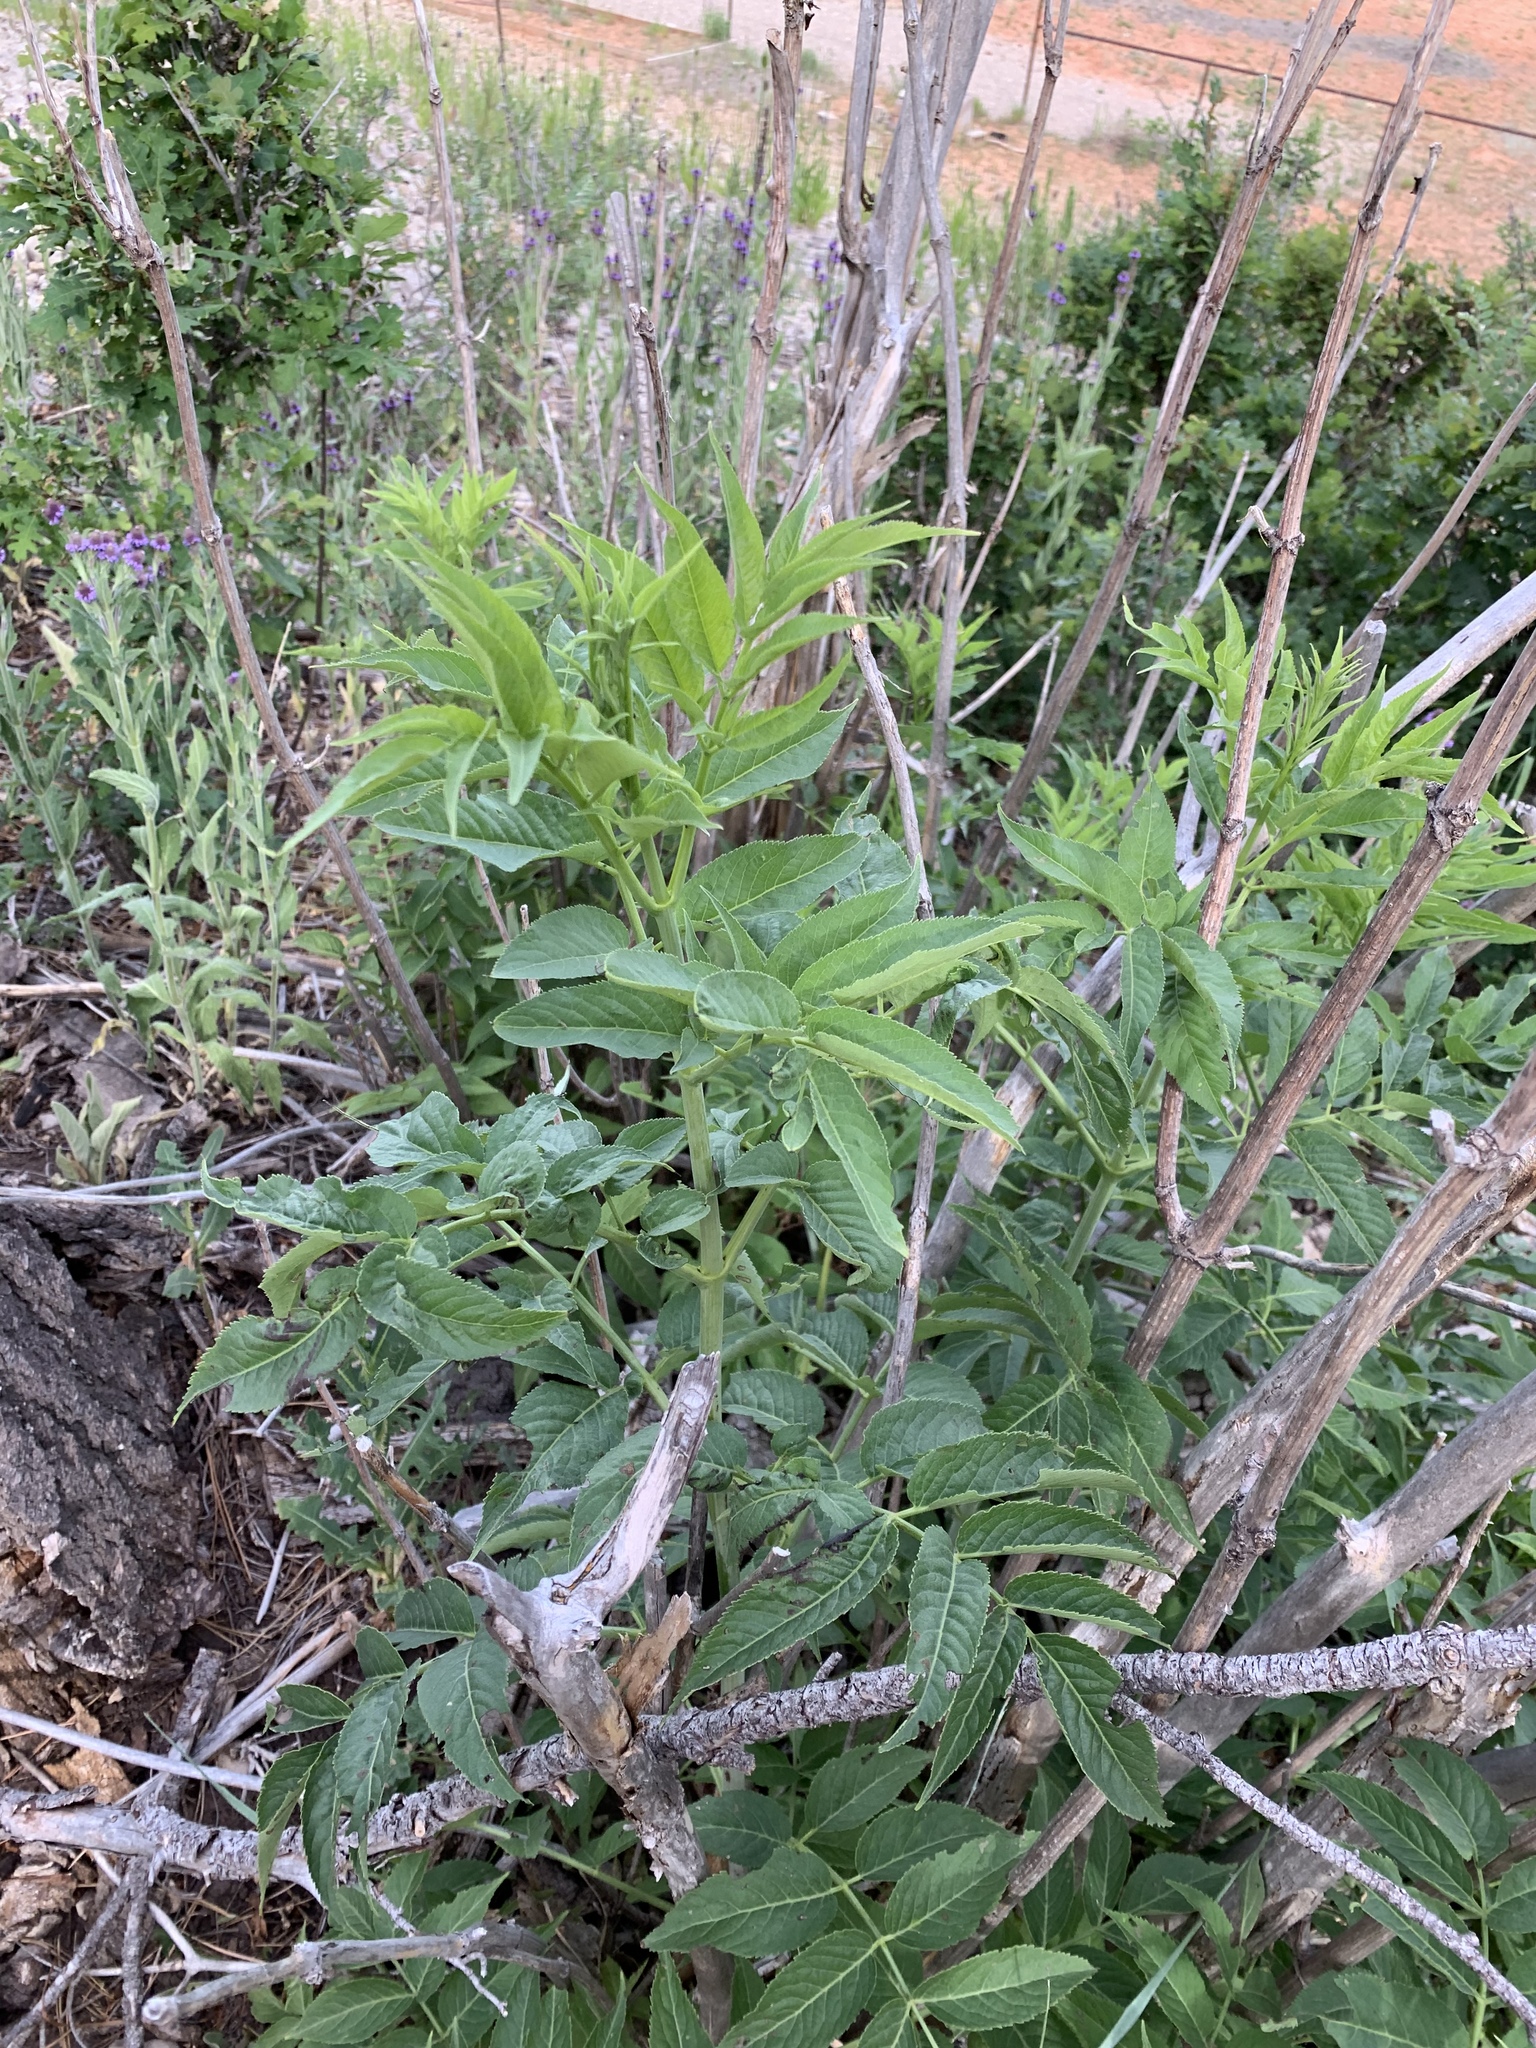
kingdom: Plantae
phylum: Tracheophyta
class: Magnoliopsida
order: Dipsacales
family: Viburnaceae
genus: Sambucus
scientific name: Sambucus cerulea
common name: Blue elder
